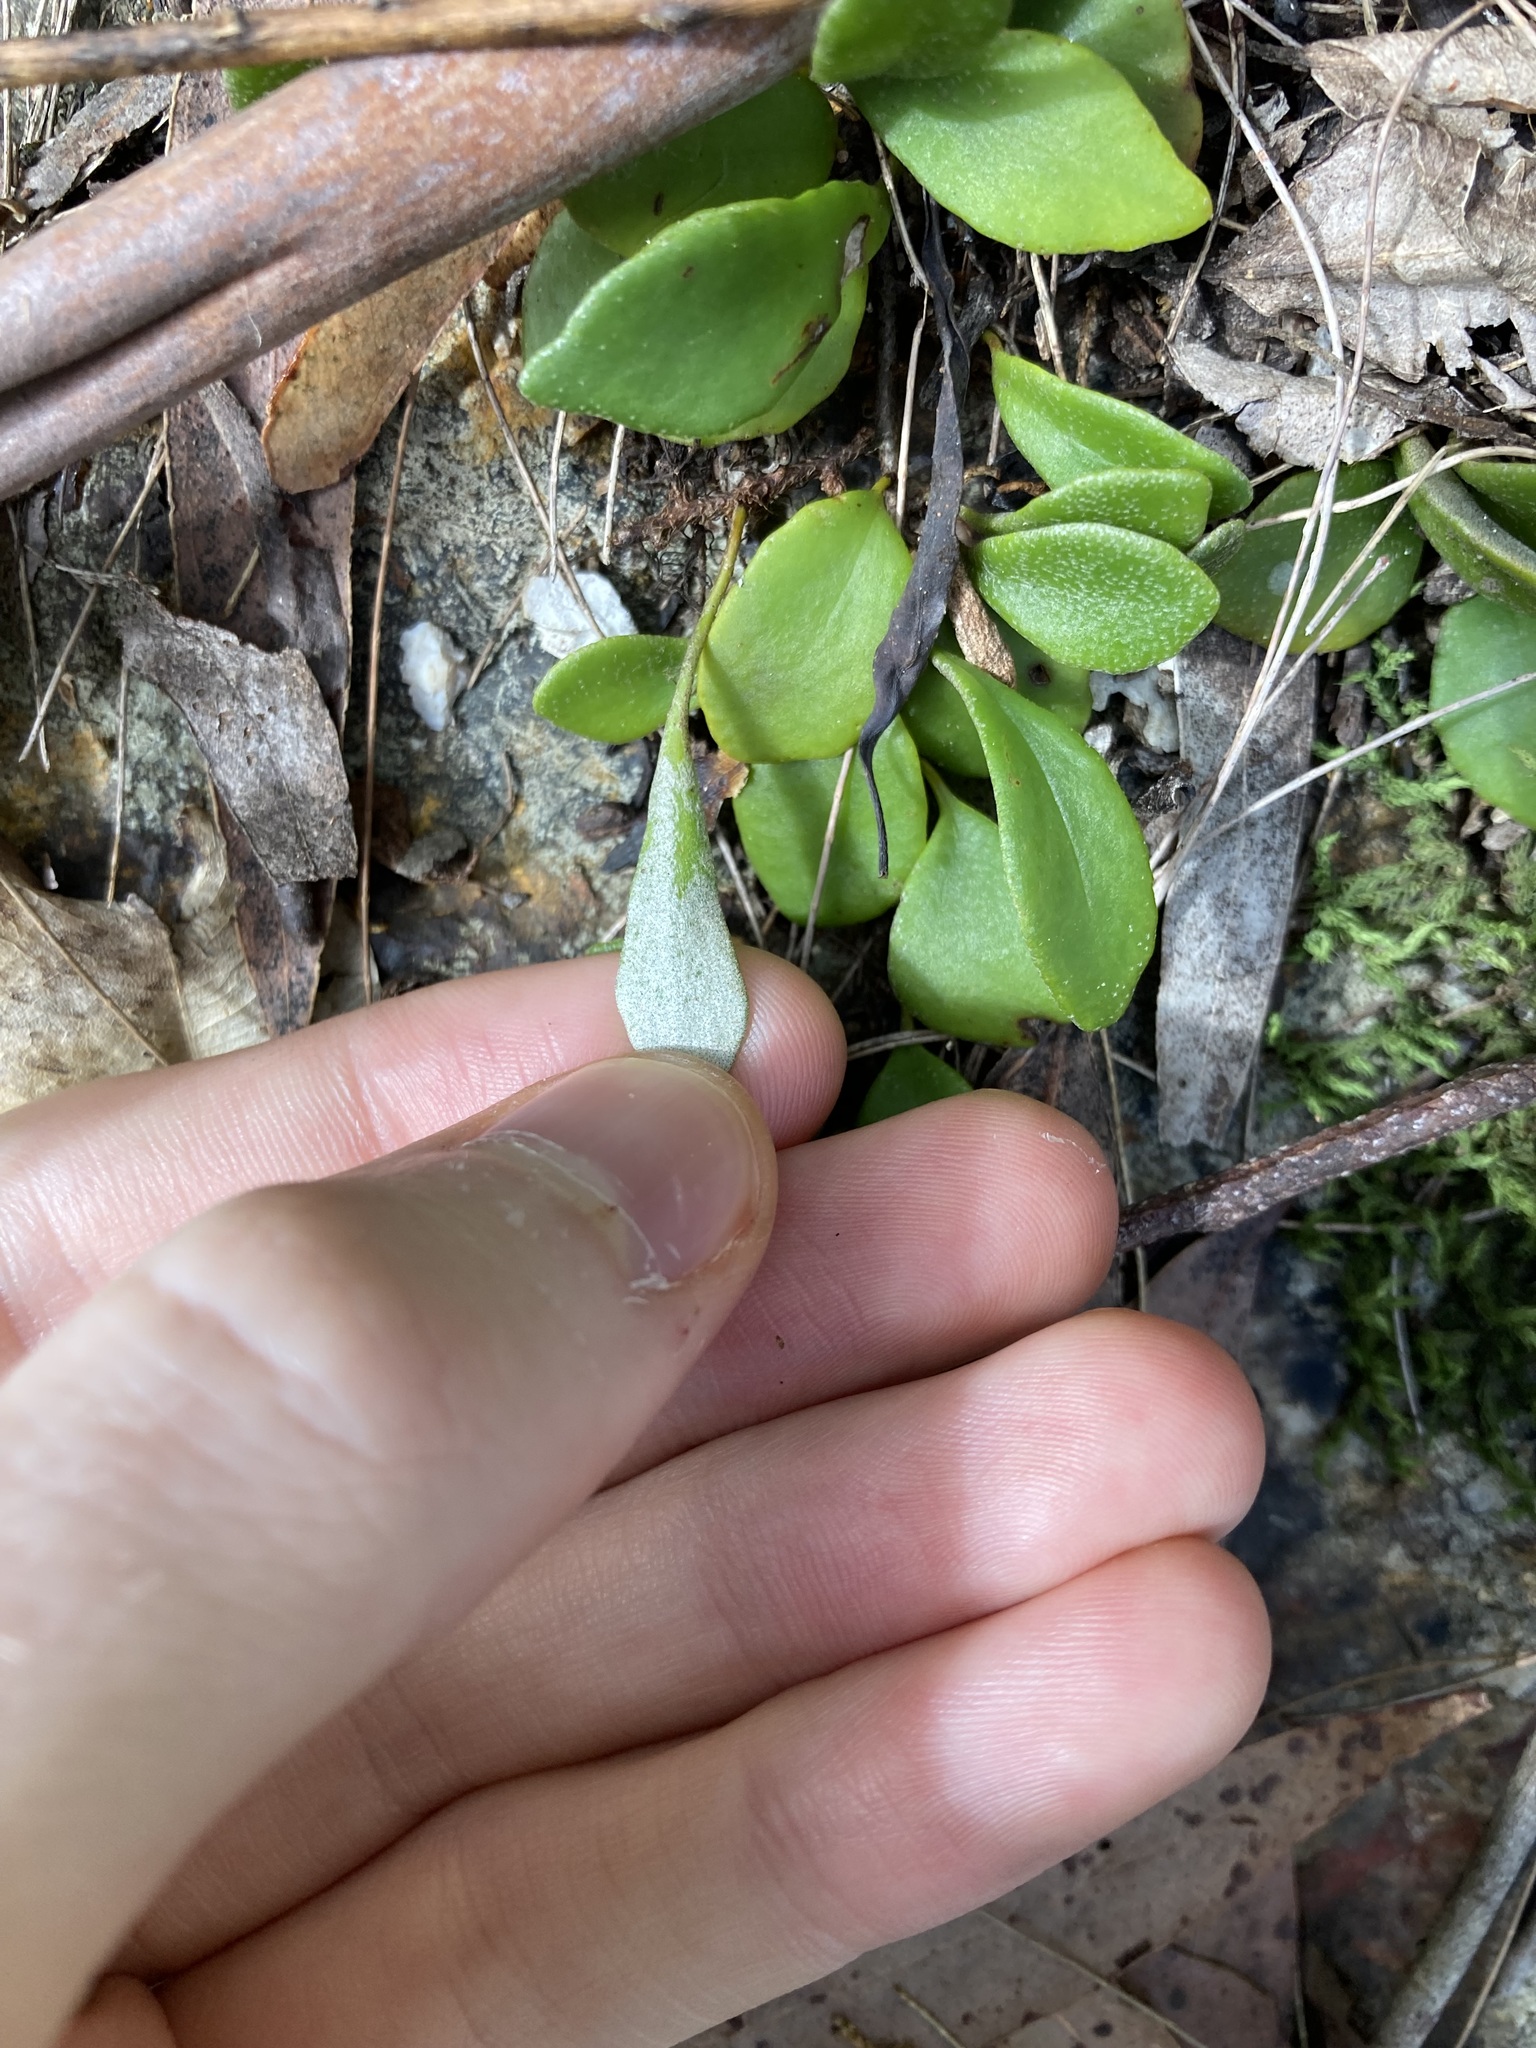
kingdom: Plantae
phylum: Tracheophyta
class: Polypodiopsida
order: Polypodiales
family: Polypodiaceae
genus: Pyrrosia
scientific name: Pyrrosia rupestris
